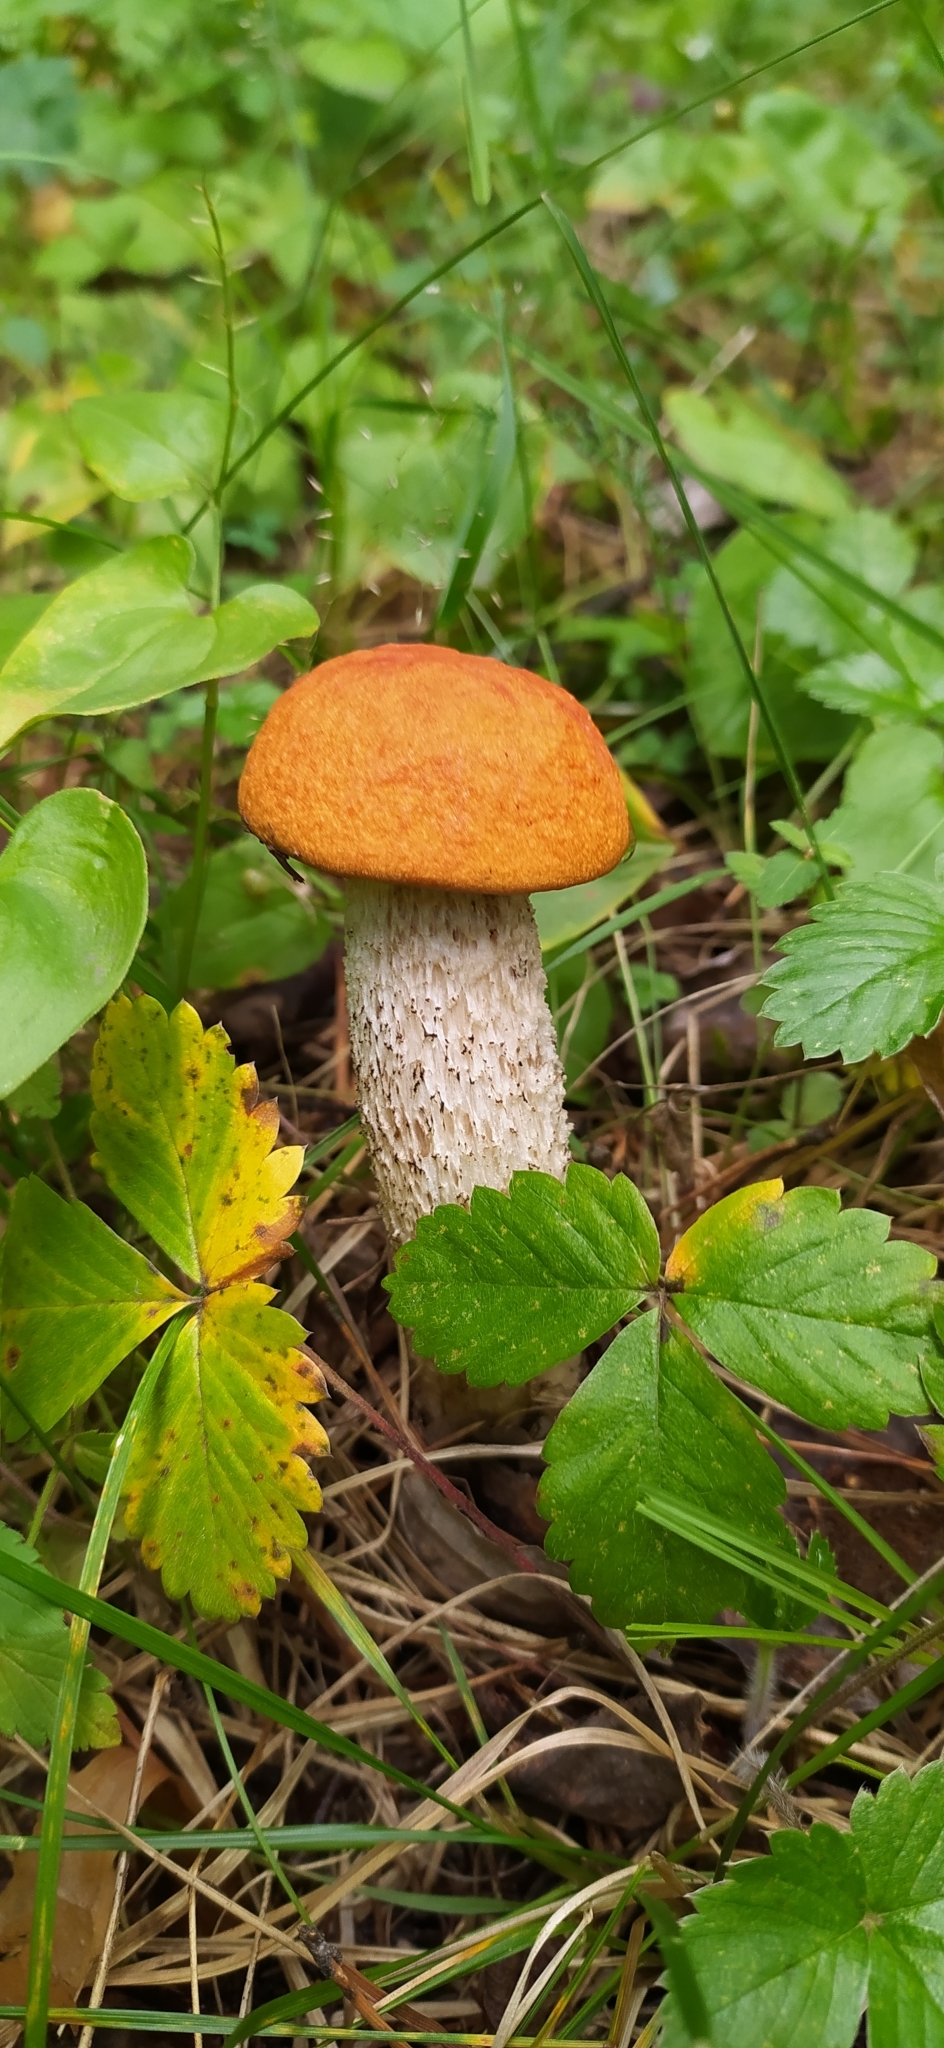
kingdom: Fungi
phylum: Basidiomycota
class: Agaricomycetes
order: Boletales
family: Boletaceae
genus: Leccinum
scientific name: Leccinum aurantiacum
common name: Orange bolete
